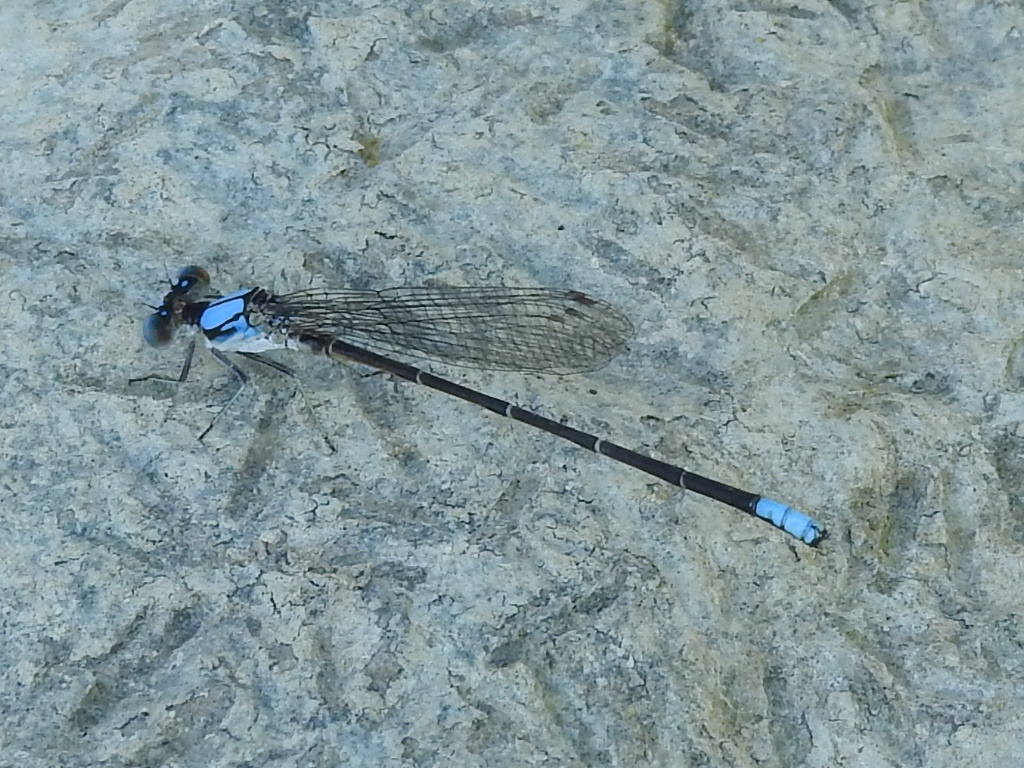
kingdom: Animalia
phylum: Arthropoda
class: Insecta
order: Odonata
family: Coenagrionidae
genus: Argia
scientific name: Argia apicalis
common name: Blue-fronted dancer
